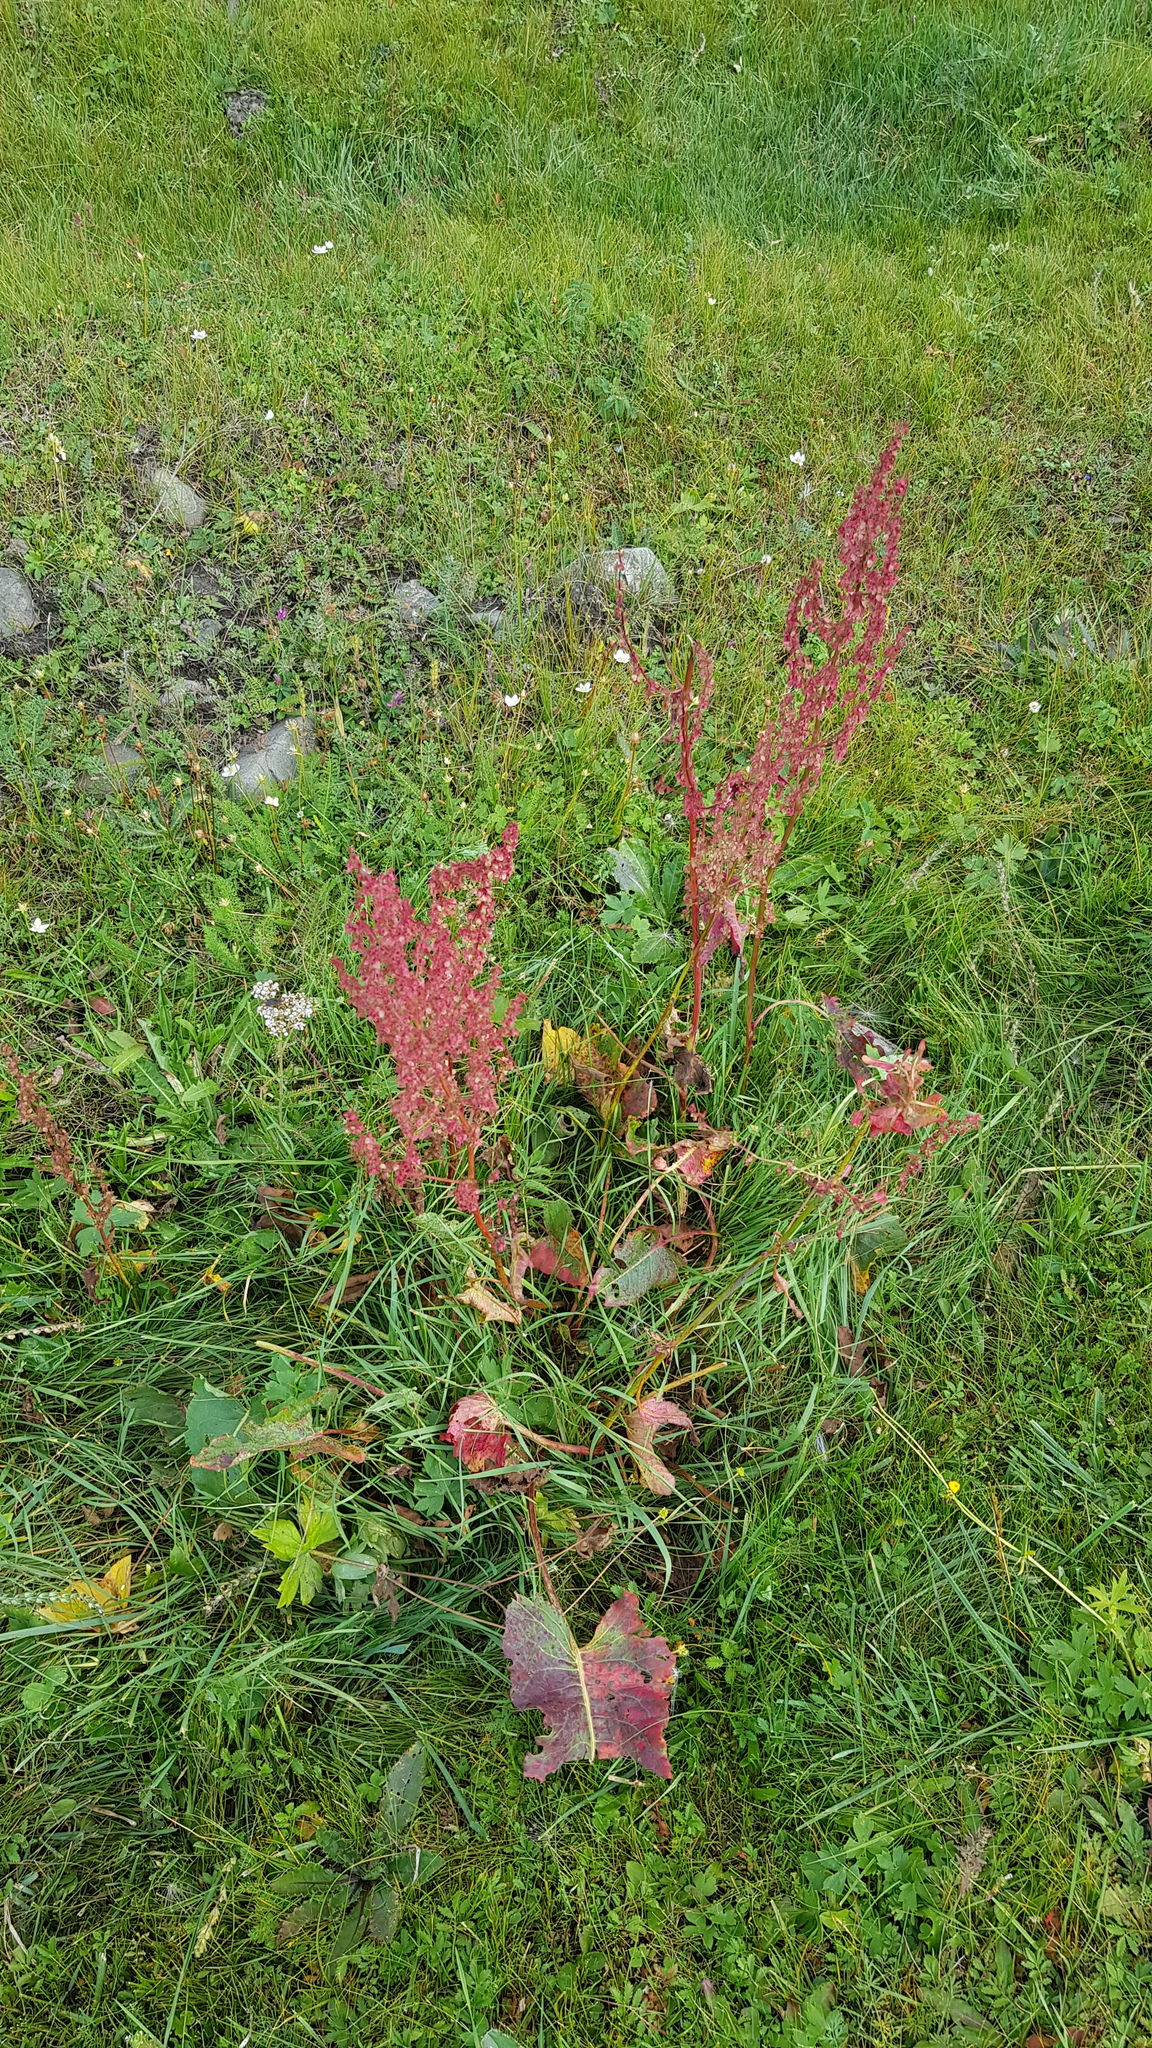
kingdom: Plantae
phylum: Tracheophyta
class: Magnoliopsida
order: Caryophyllales
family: Polygonaceae
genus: Rumex
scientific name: Rumex thyrsiflorus
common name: Garden sorrel
